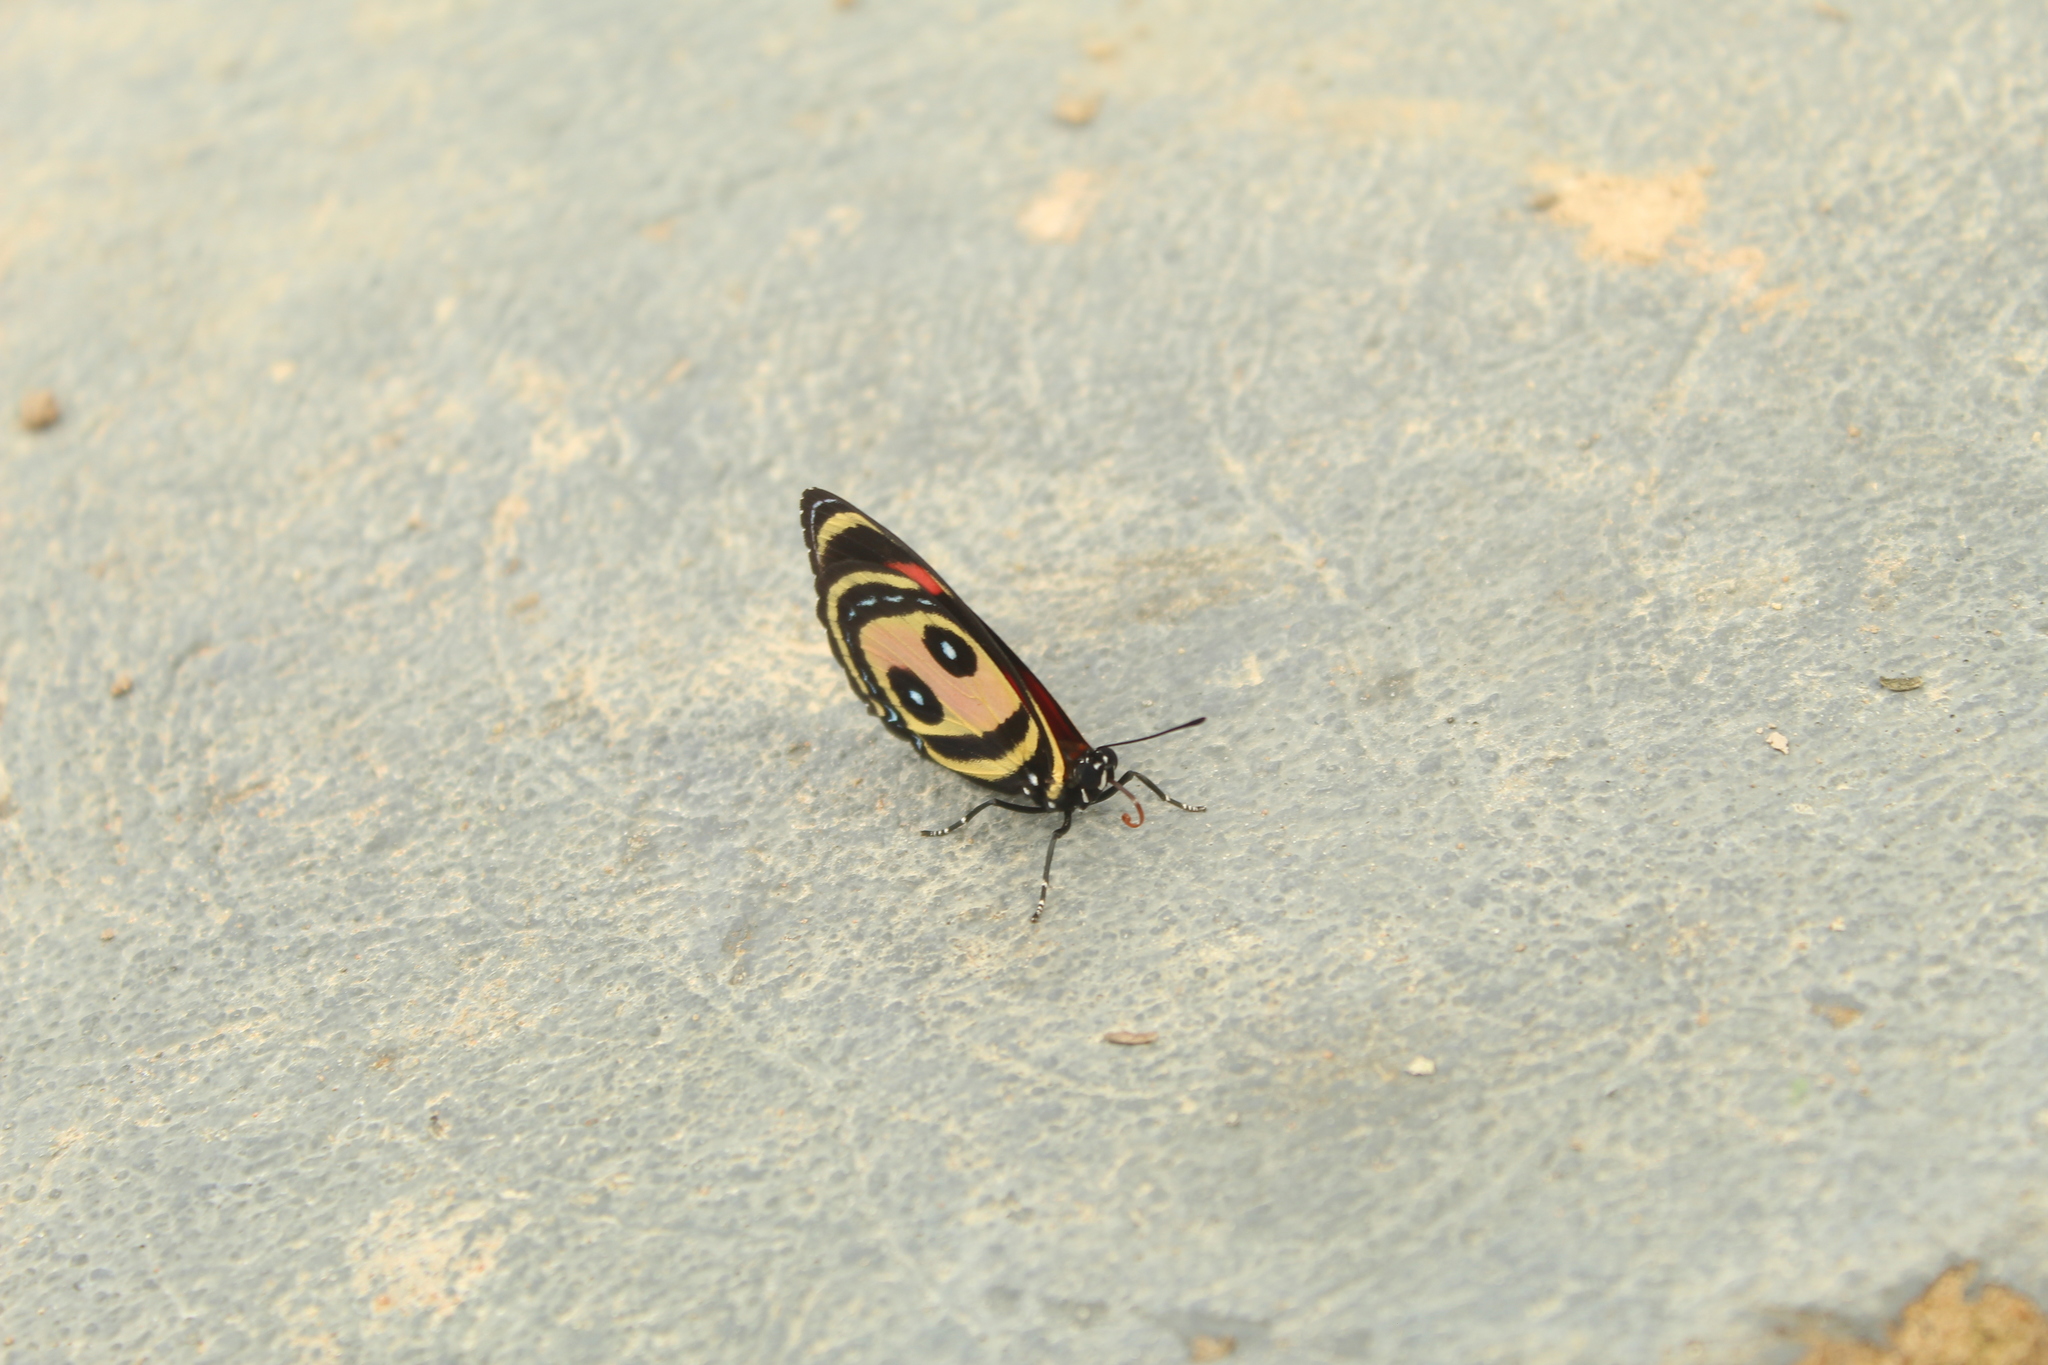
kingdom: Animalia
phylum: Arthropoda
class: Insecta
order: Lepidoptera
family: Nymphalidae
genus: Catagramma
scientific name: Catagramma Callicore pitheas
